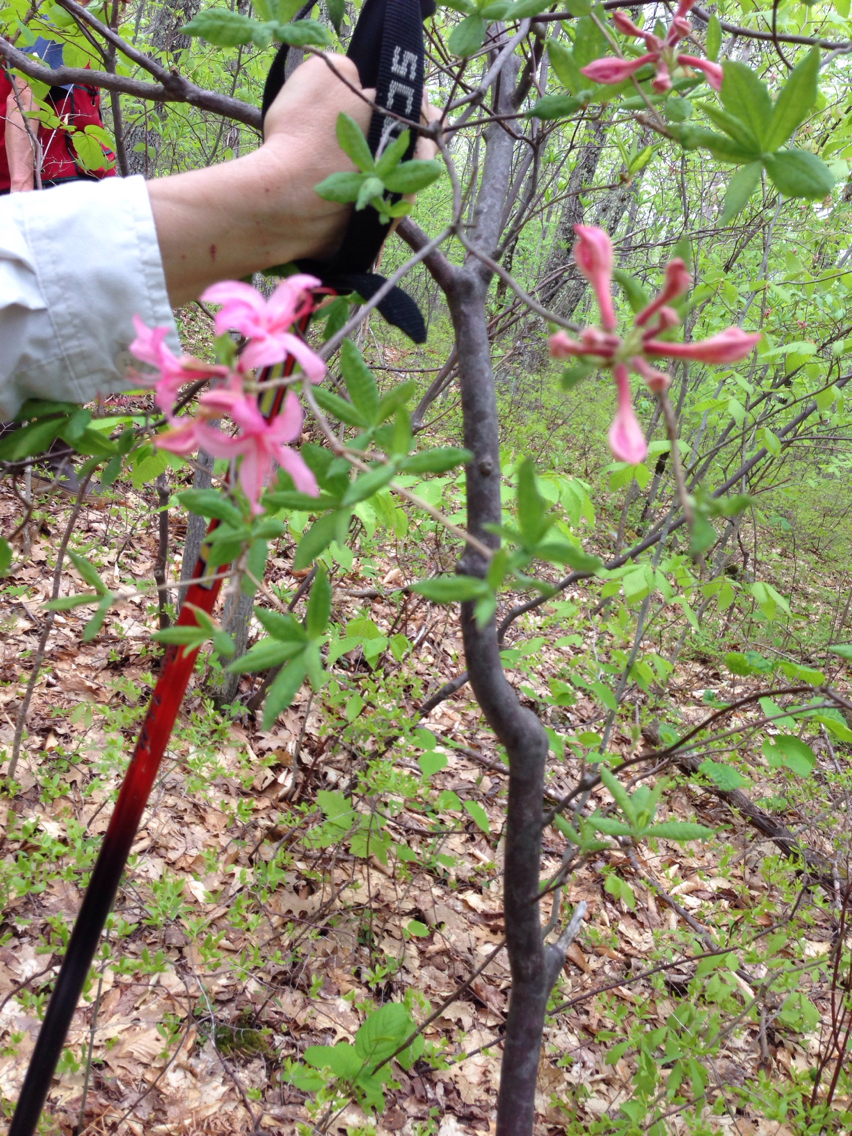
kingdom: Plantae
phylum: Tracheophyta
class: Magnoliopsida
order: Ericales
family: Ericaceae
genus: Rhododendron
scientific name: Rhododendron roseum
